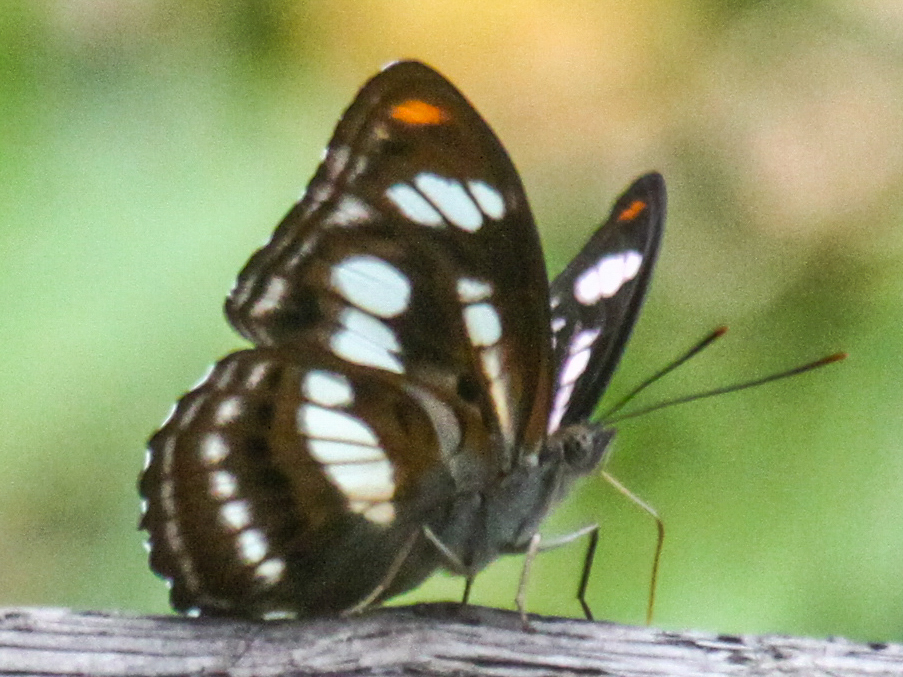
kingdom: Animalia
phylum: Arthropoda
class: Insecta
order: Lepidoptera
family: Nymphalidae
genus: Parathyma
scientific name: Parathyma nefte
